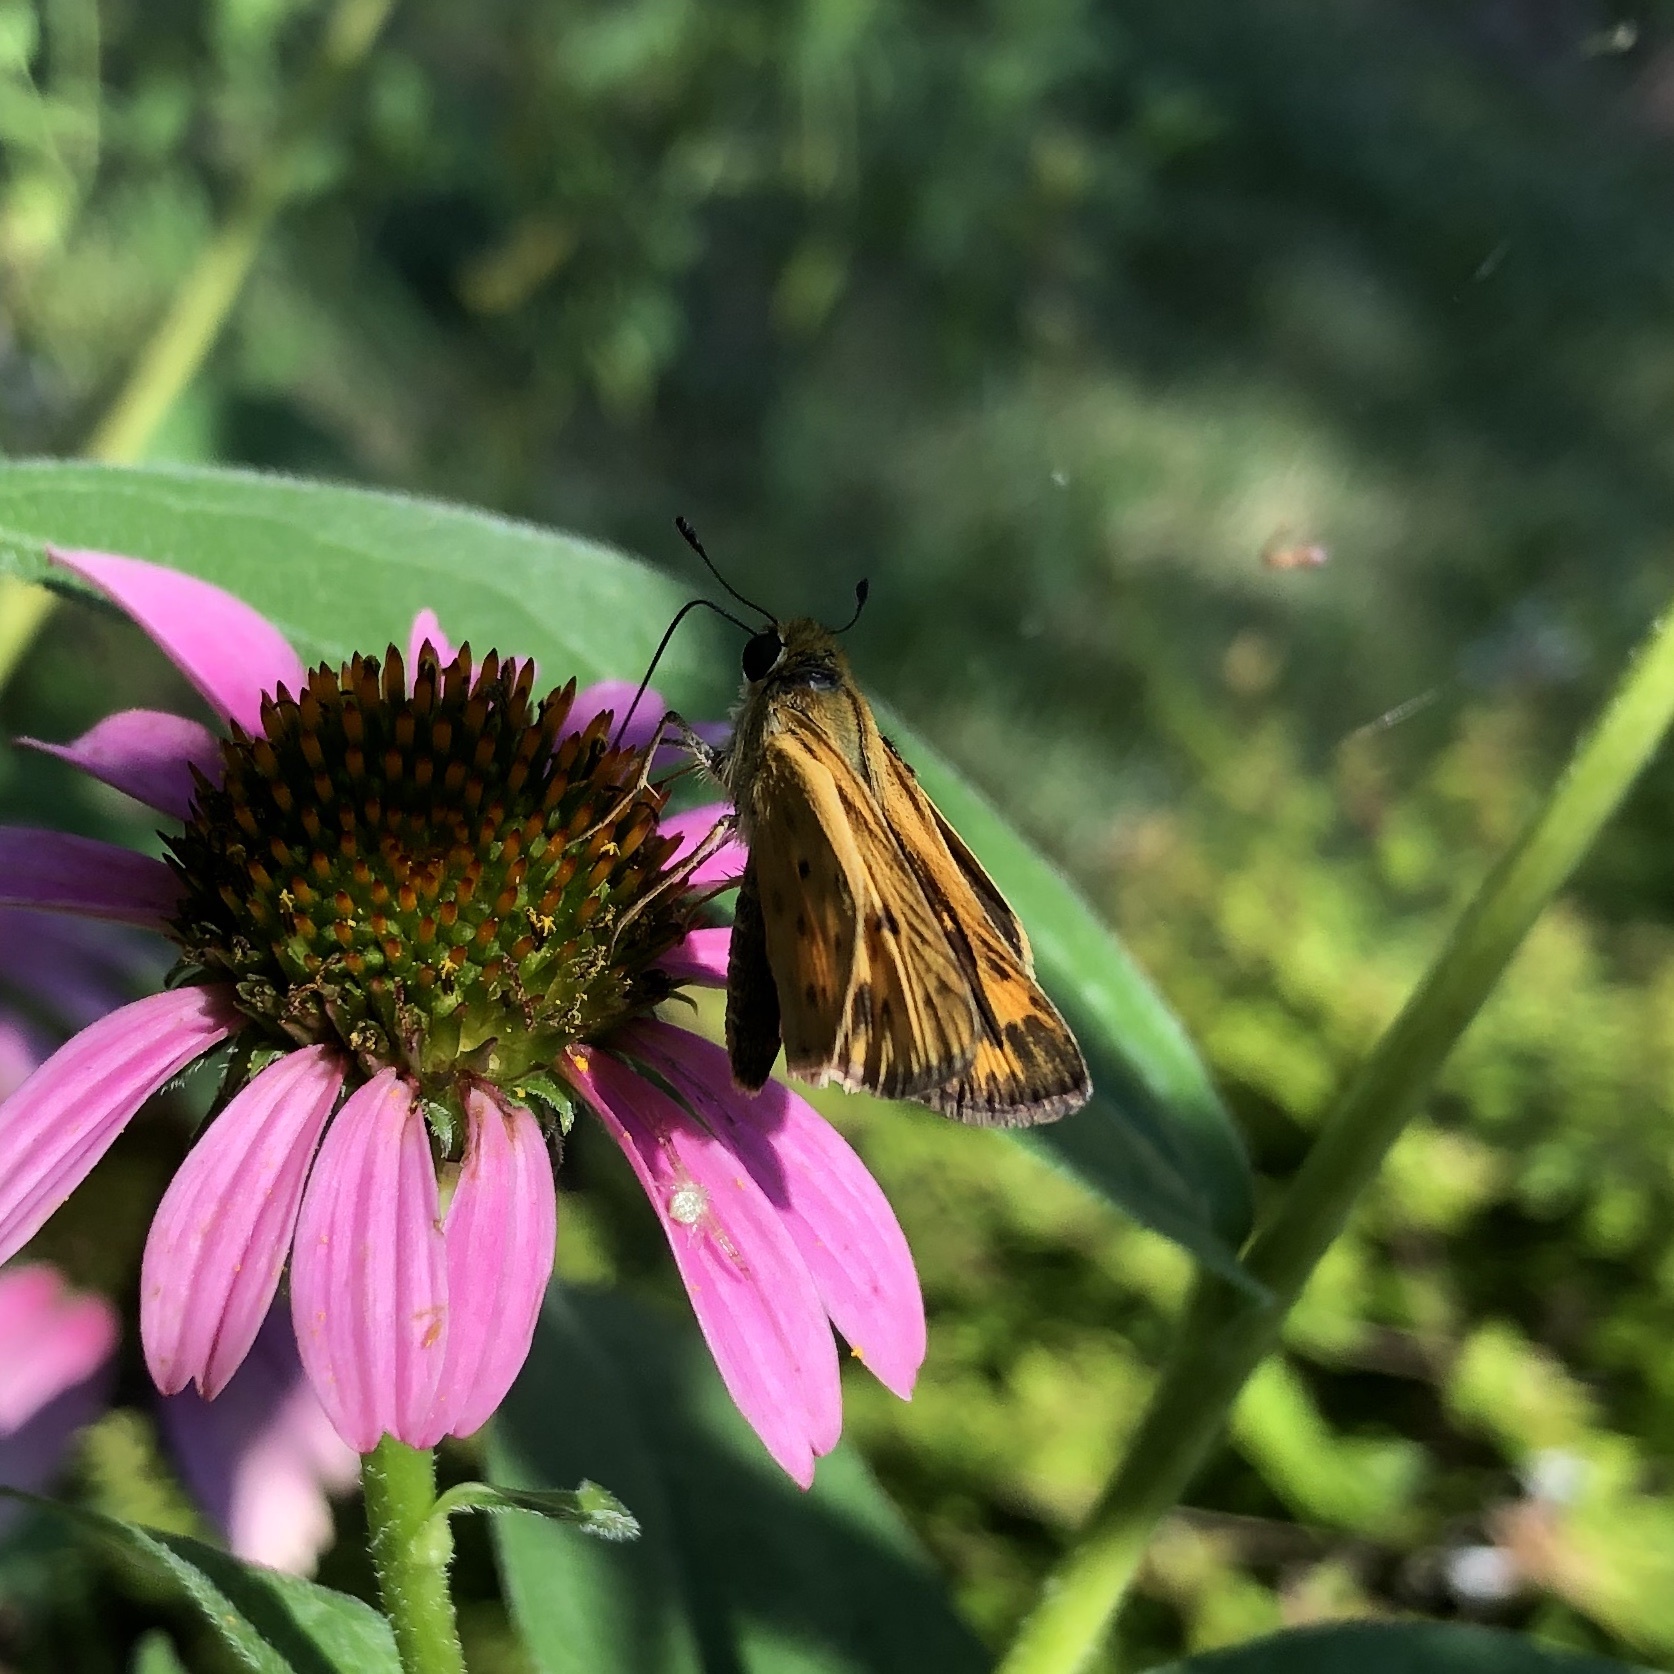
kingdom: Animalia
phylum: Arthropoda
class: Insecta
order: Lepidoptera
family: Hesperiidae
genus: Hylephila
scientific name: Hylephila phyleus
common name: Fiery skipper
